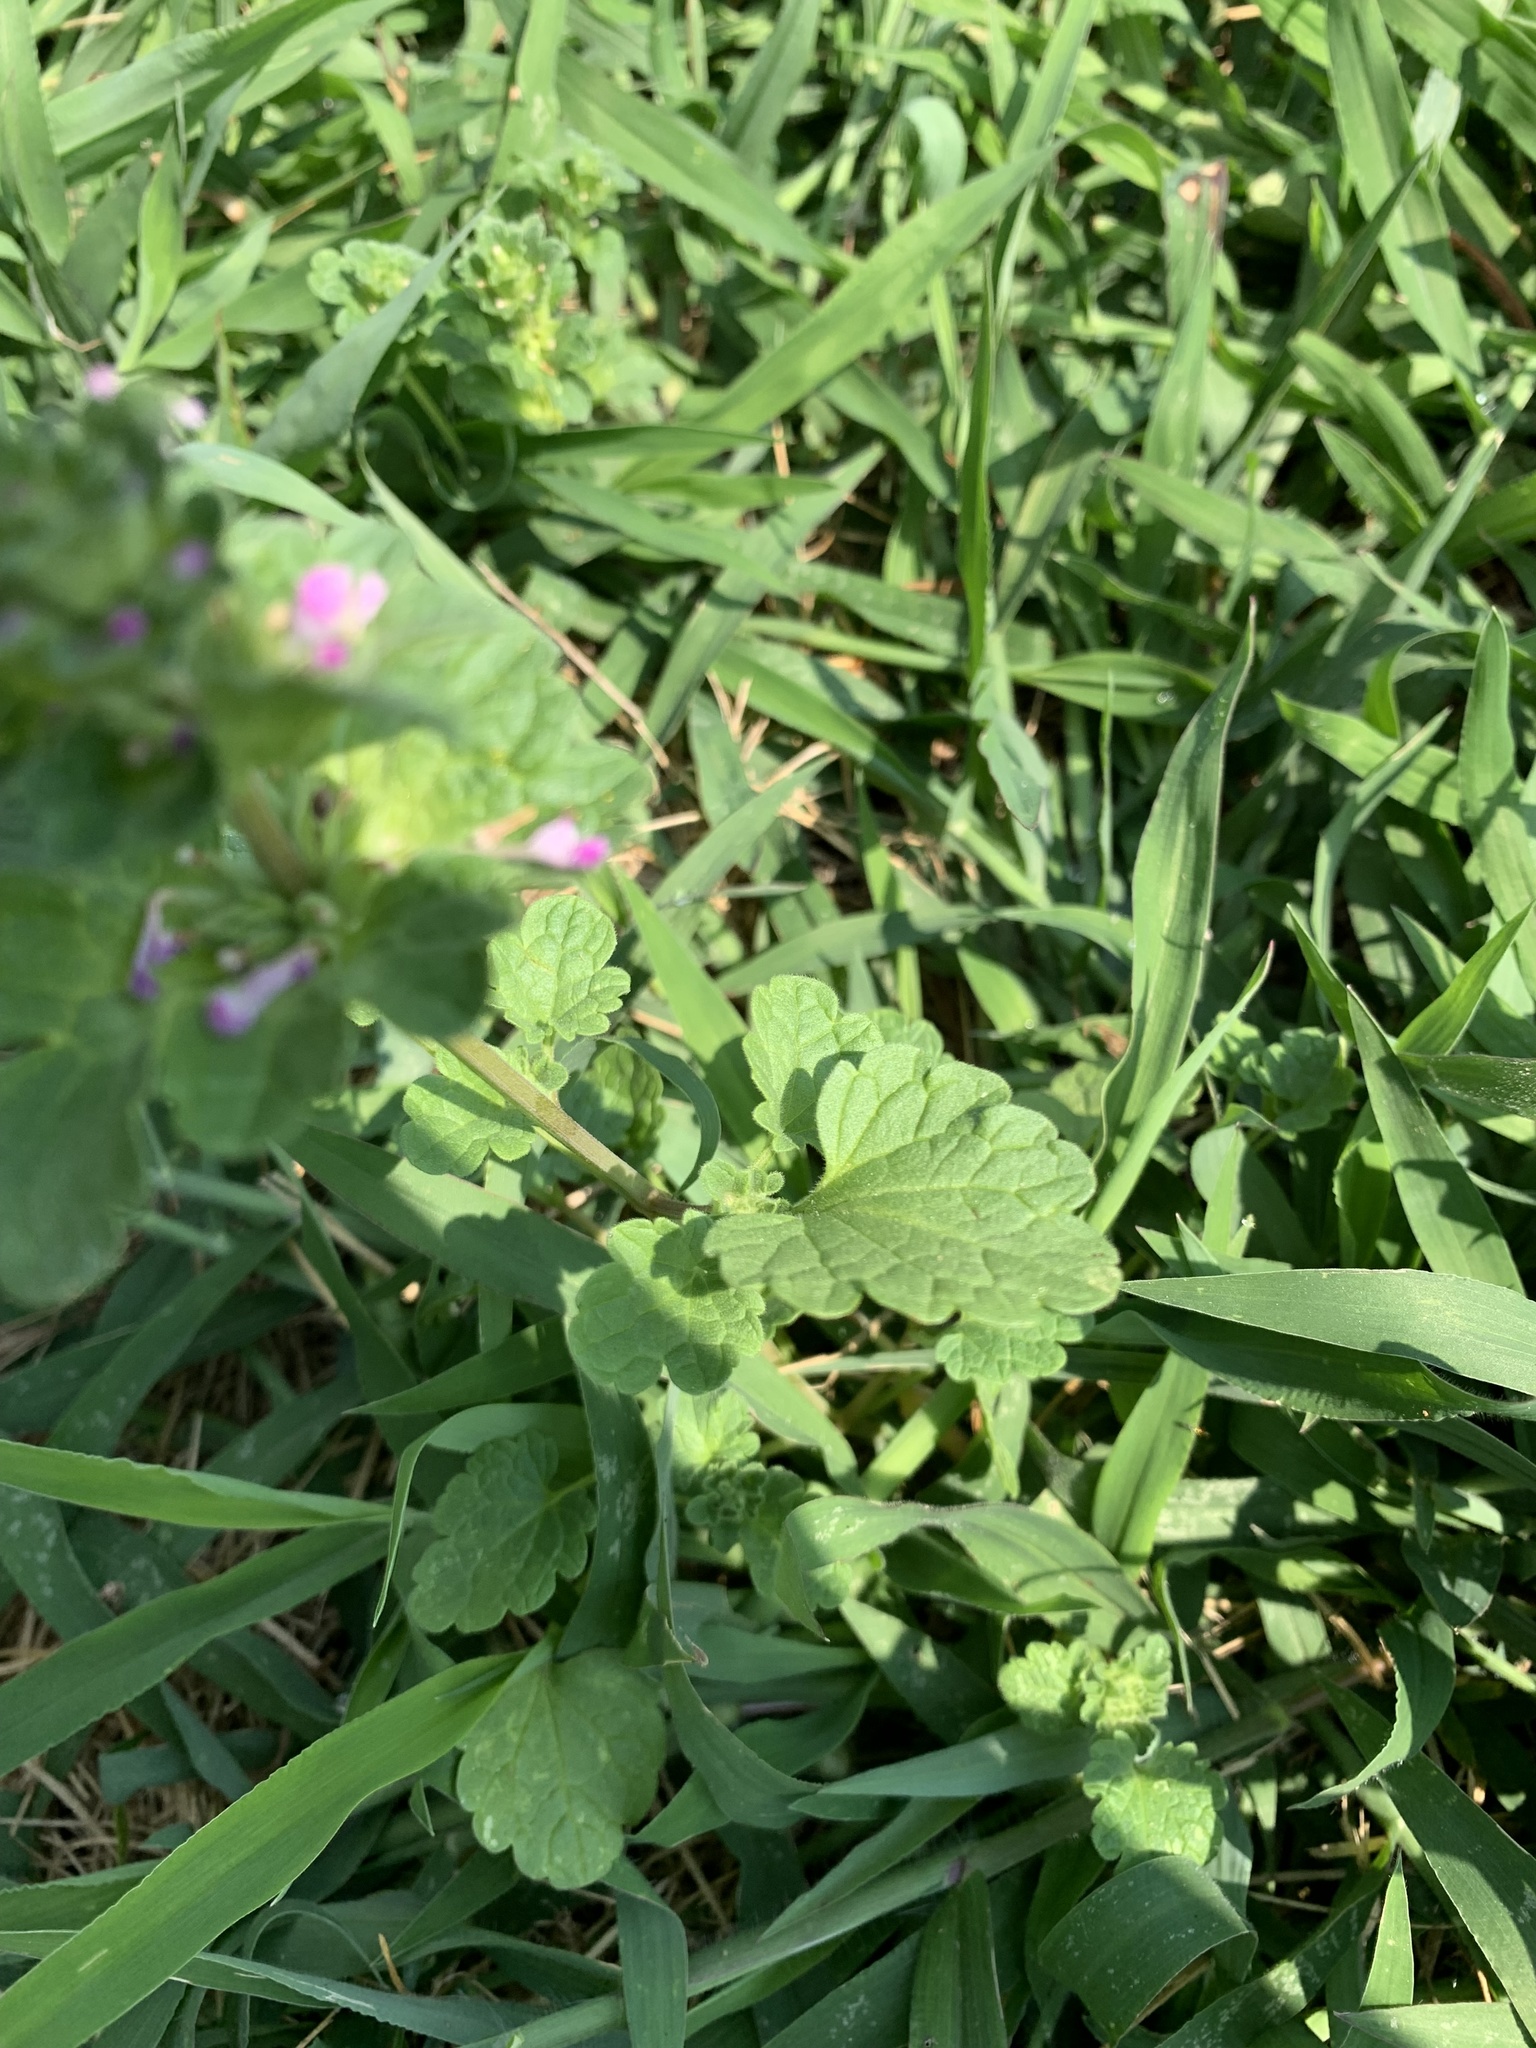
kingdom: Plantae
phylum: Tracheophyta
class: Magnoliopsida
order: Lamiales
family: Lamiaceae
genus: Lamium
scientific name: Lamium amplexicaule
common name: Henbit dead-nettle
